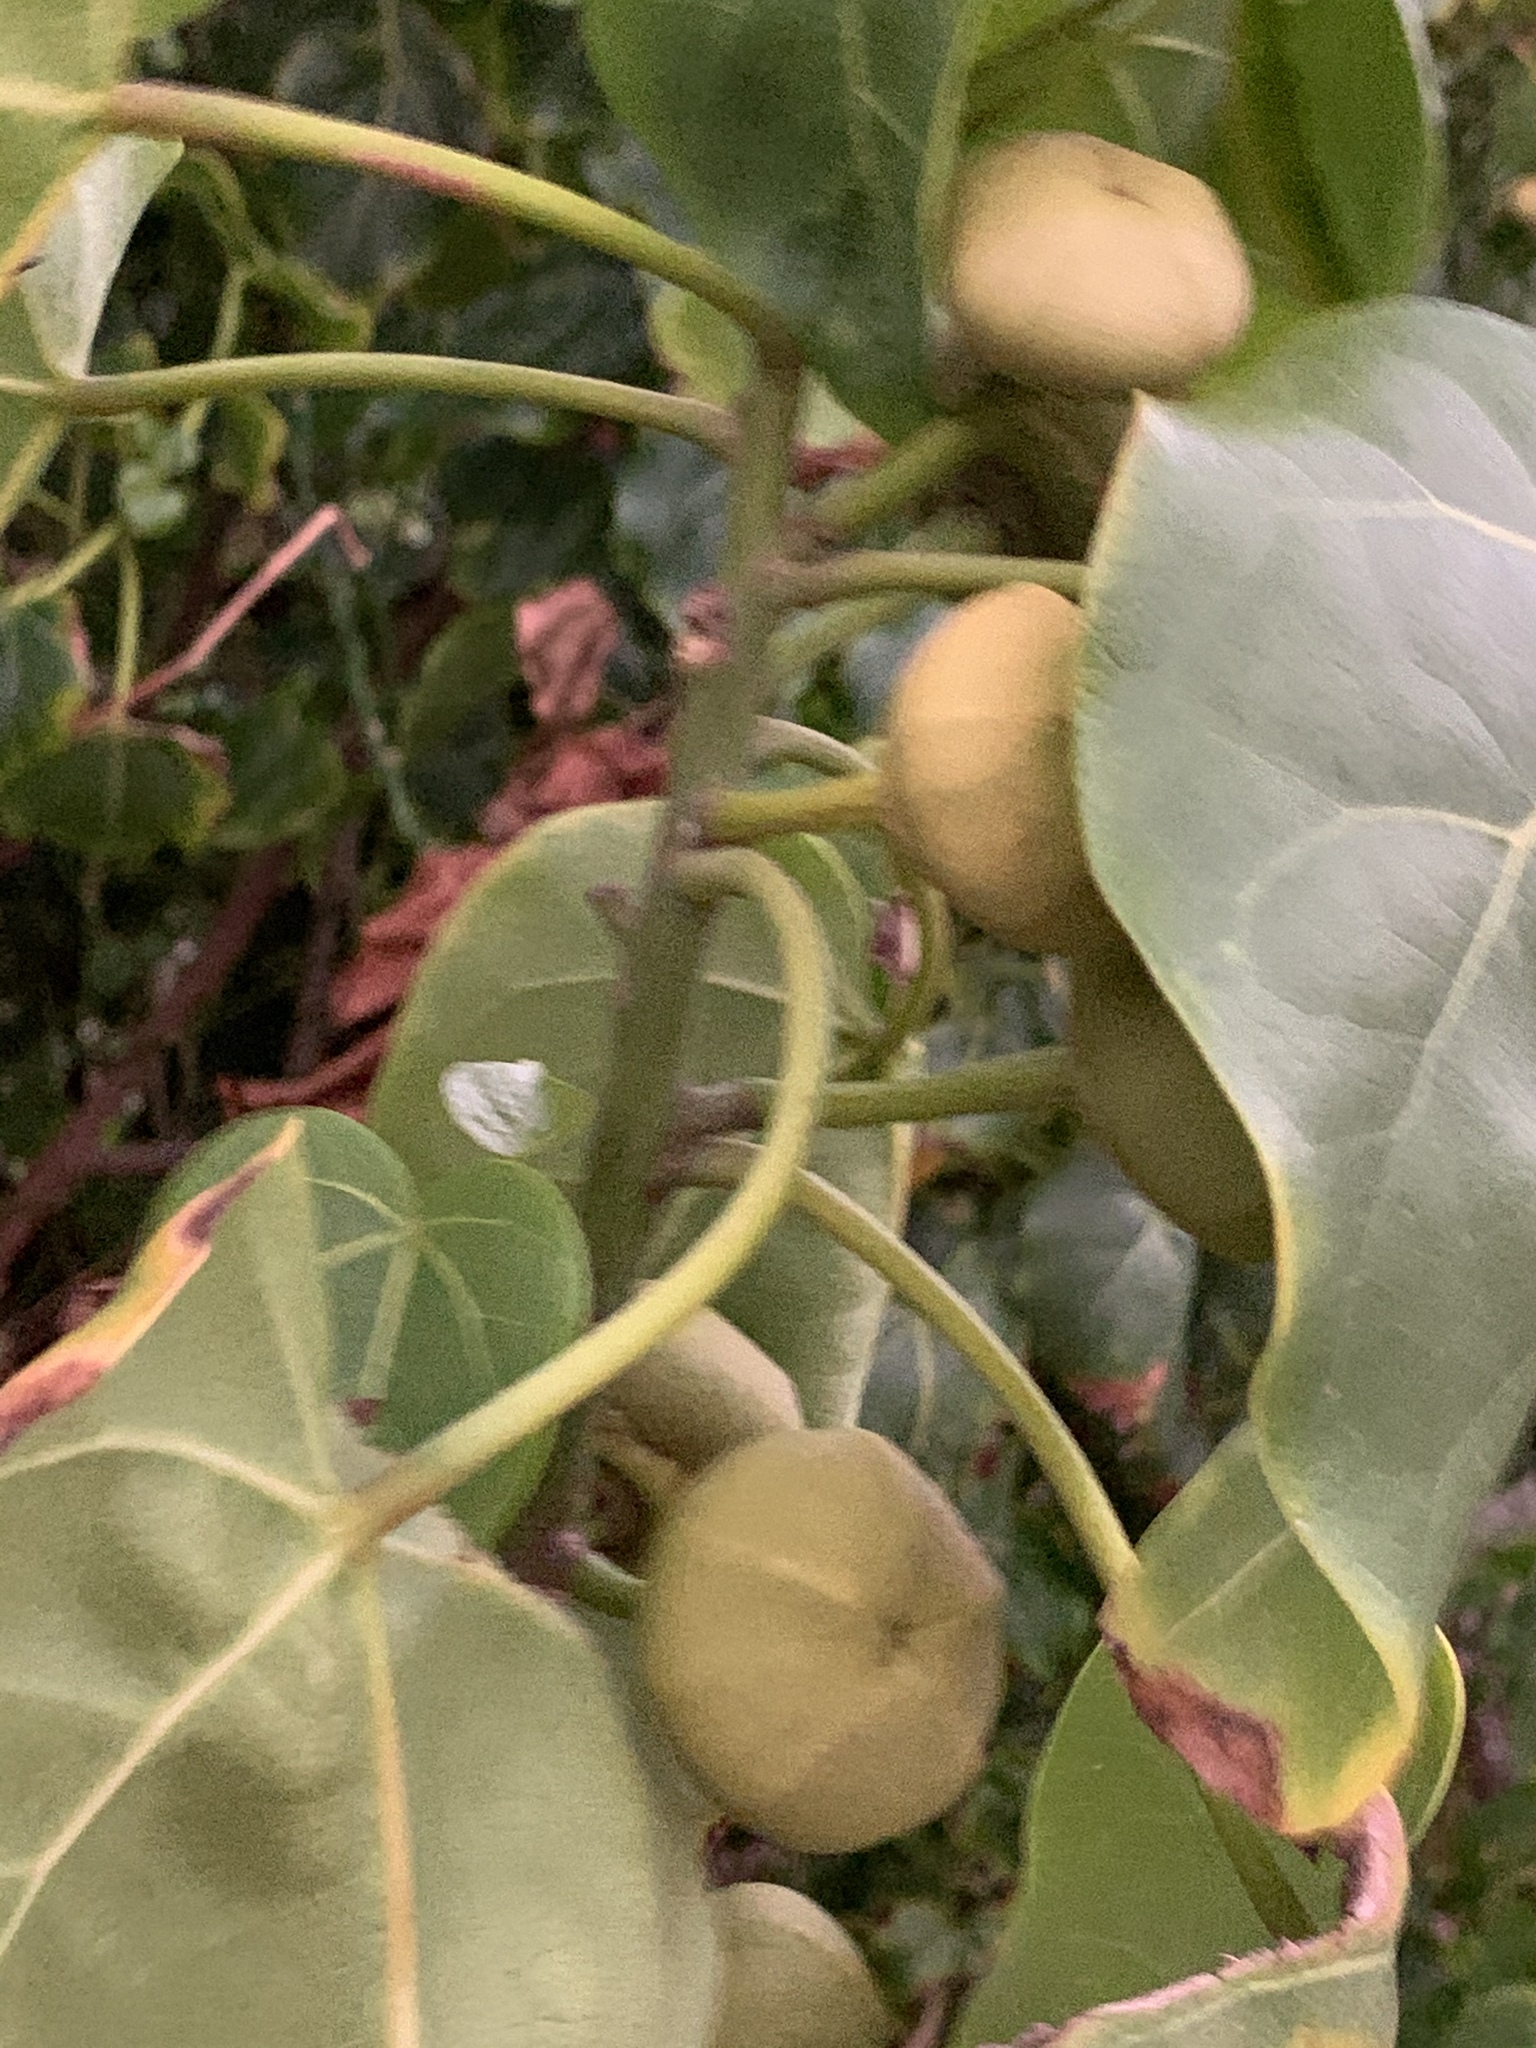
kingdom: Plantae
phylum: Tracheophyta
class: Magnoliopsida
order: Malvales
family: Malvaceae
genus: Thespesia
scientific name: Thespesia populnea
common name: Seaside mahoe
